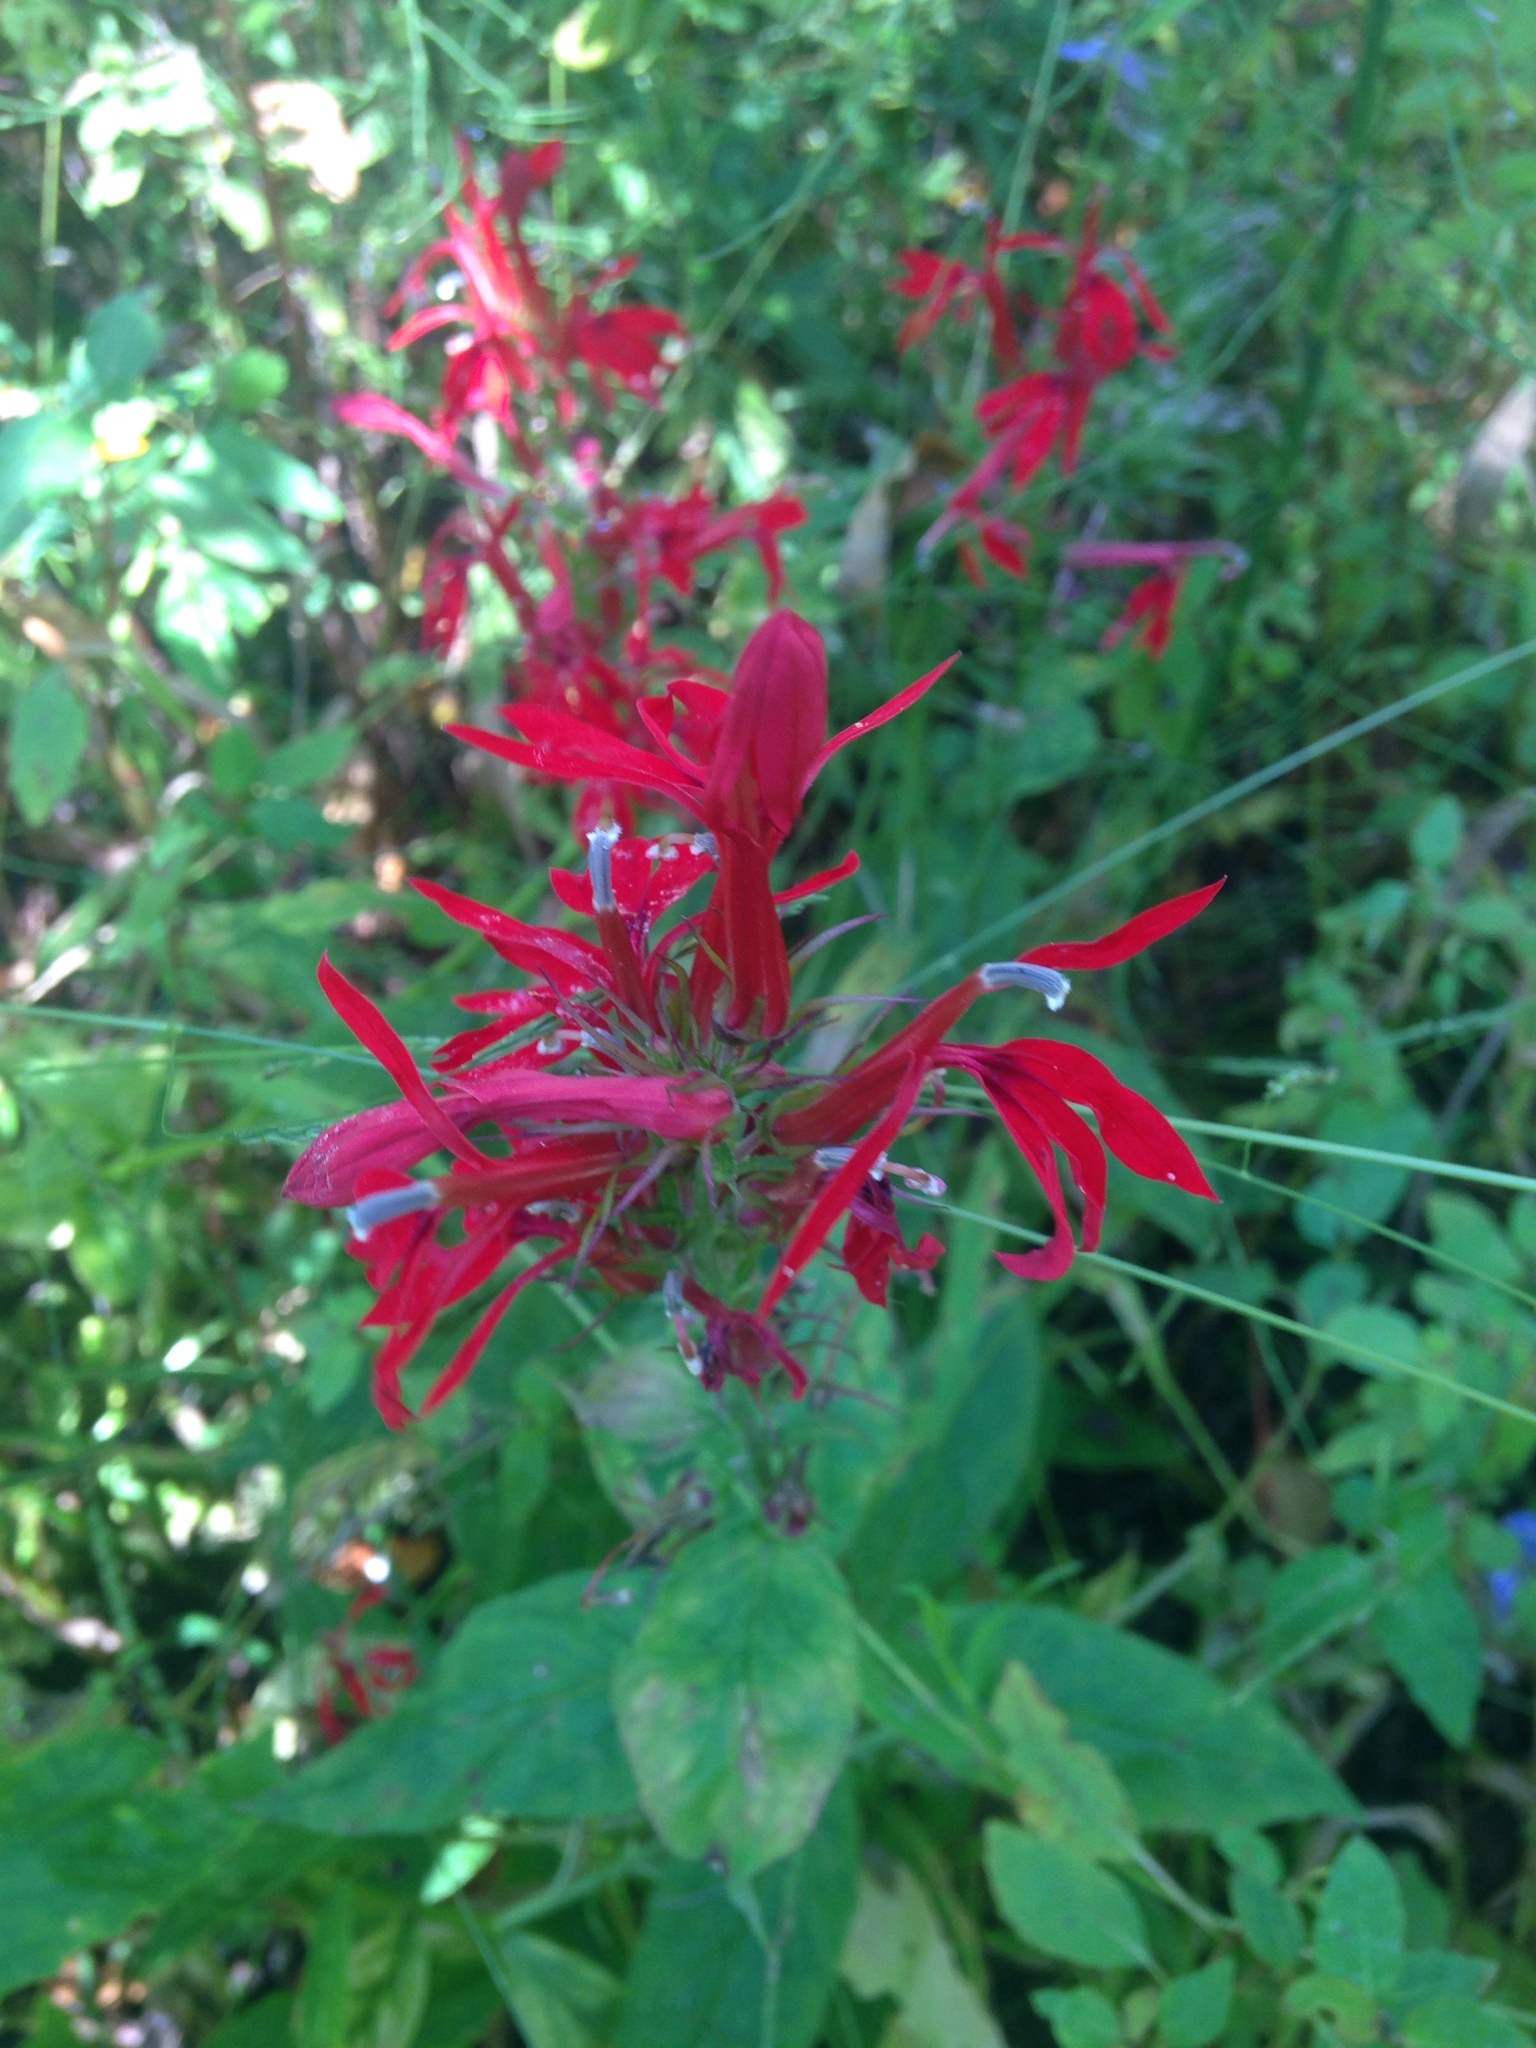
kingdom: Plantae
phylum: Tracheophyta
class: Magnoliopsida
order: Asterales
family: Campanulaceae
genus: Lobelia
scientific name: Lobelia cardinalis
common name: Cardinal flower
